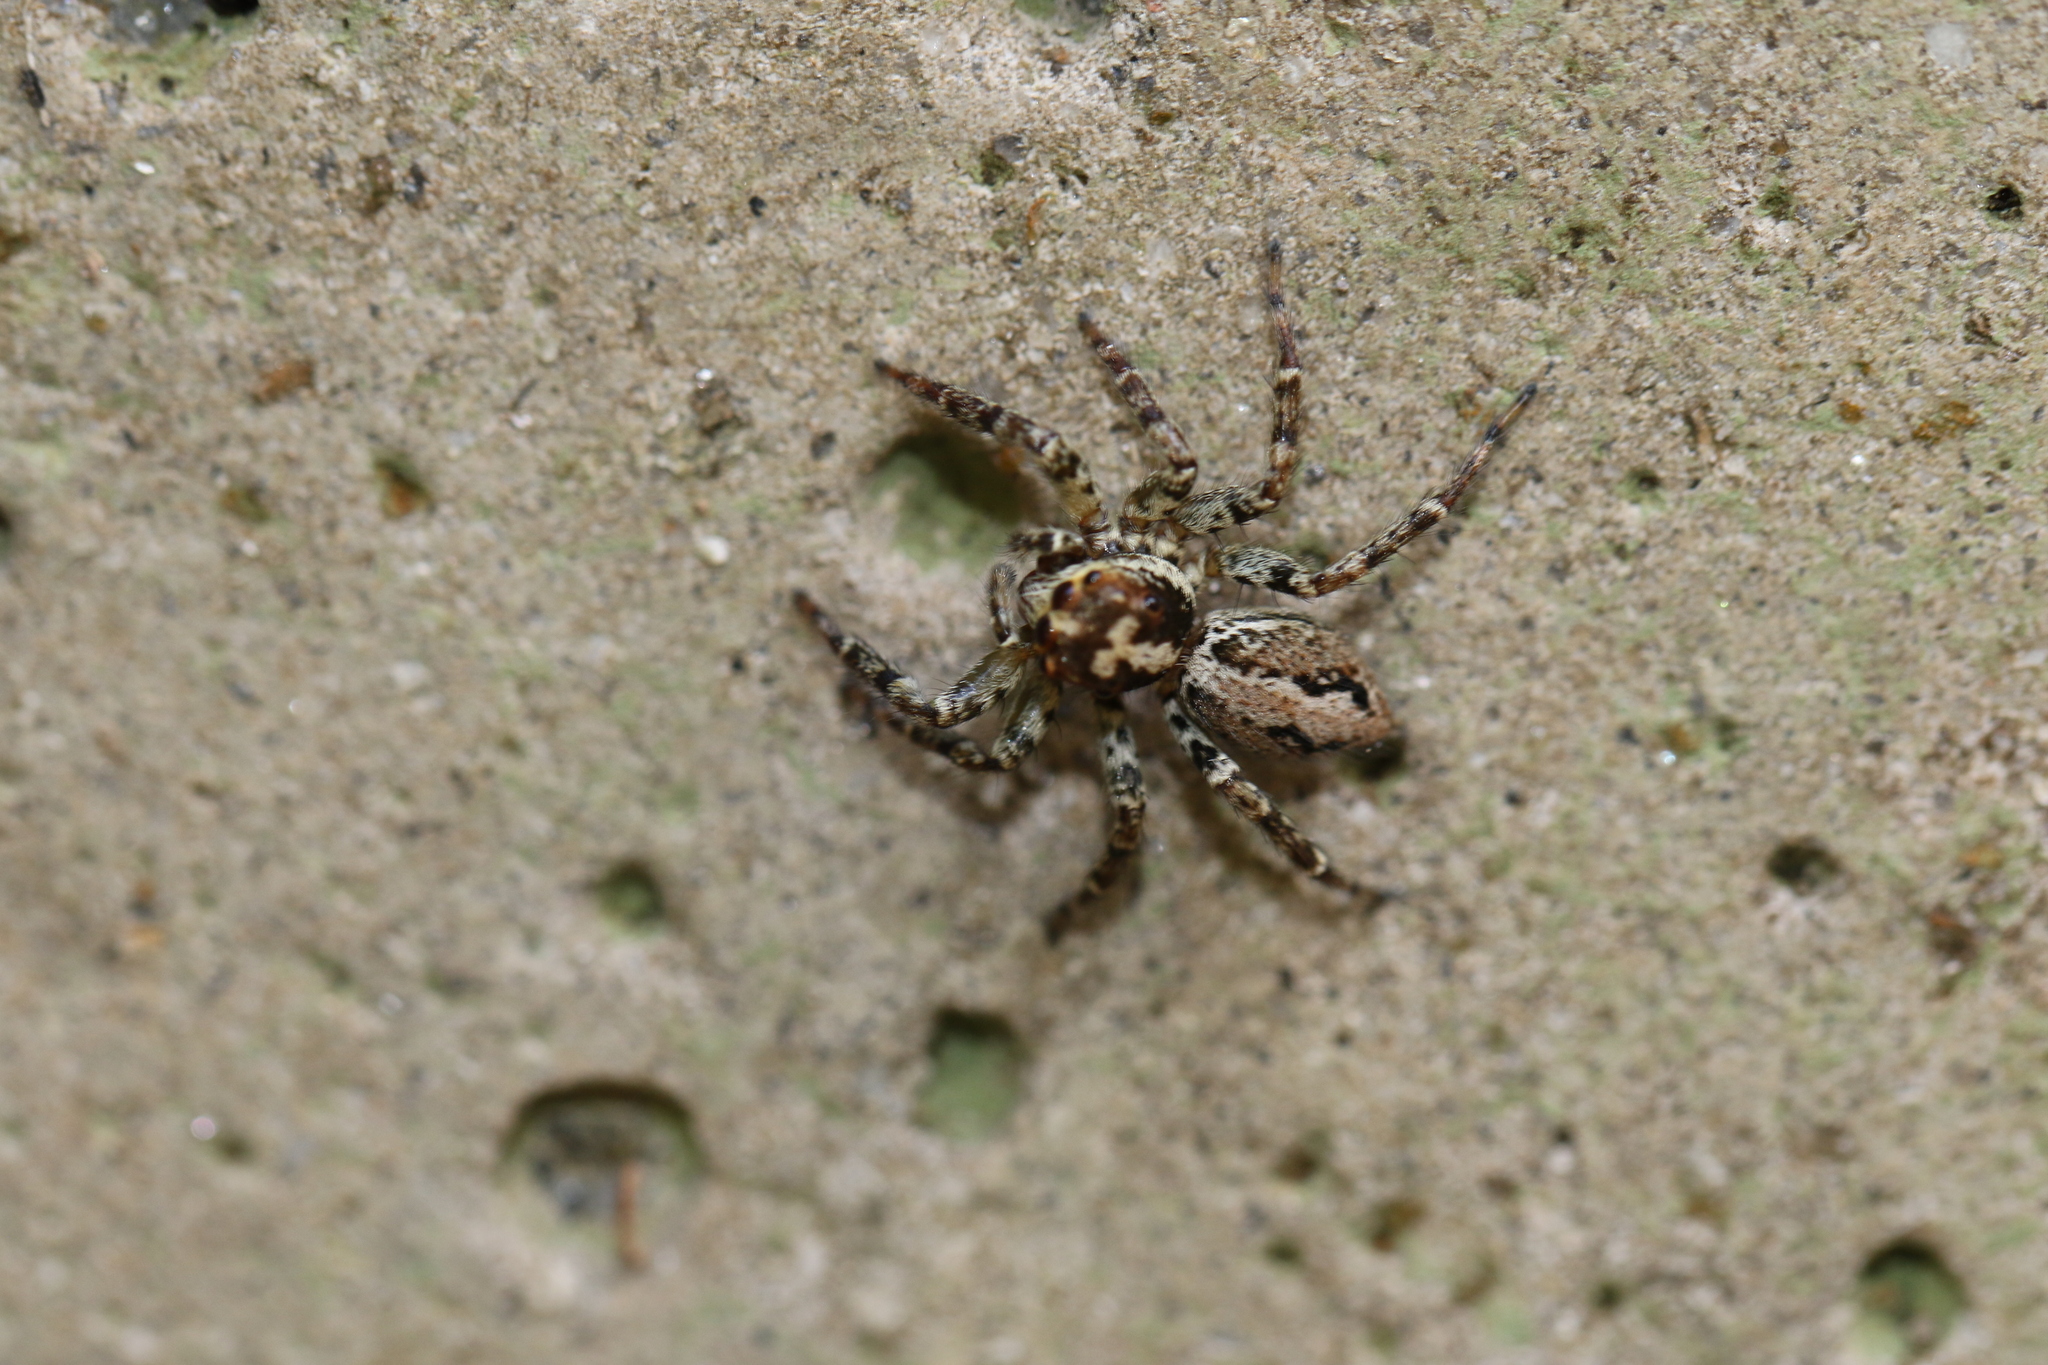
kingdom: Animalia
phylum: Arthropoda
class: Arachnida
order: Araneae
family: Salticidae
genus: Asaphobelis
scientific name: Asaphobelis physonychus
